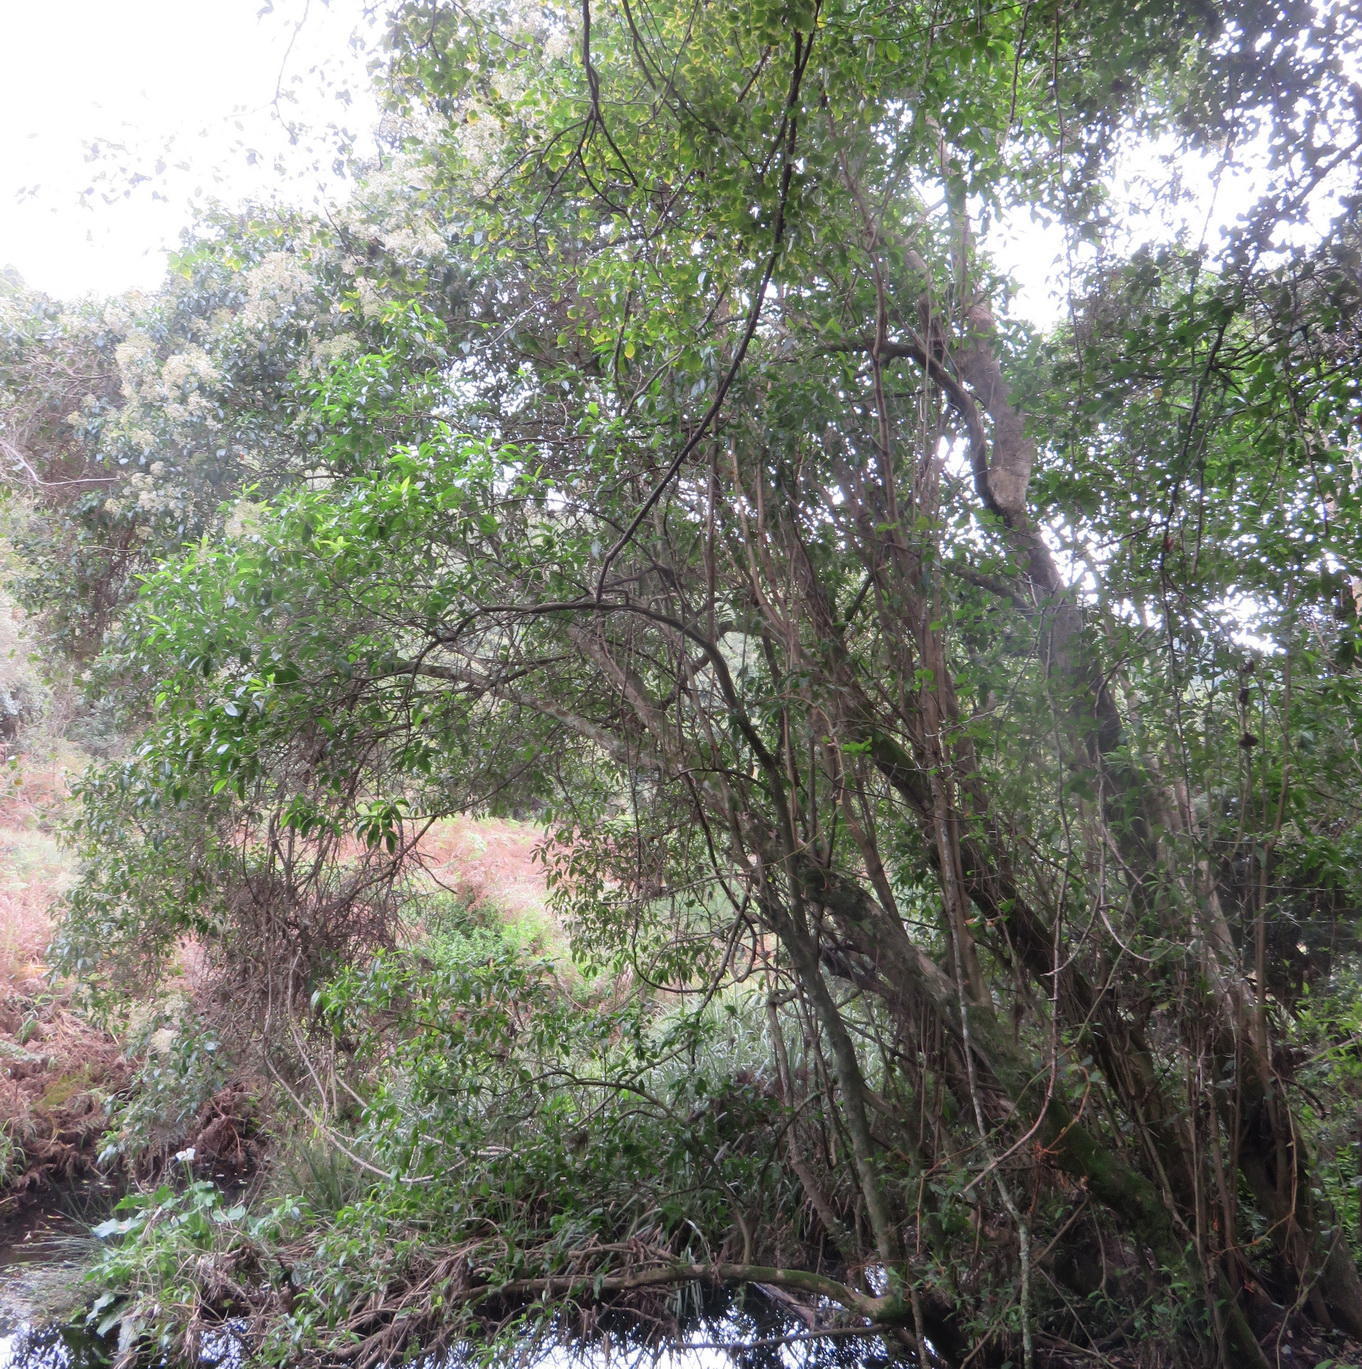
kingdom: Plantae
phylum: Tracheophyta
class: Magnoliopsida
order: Lamiales
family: Stilbaceae
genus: Nuxia
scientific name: Nuxia floribunda
